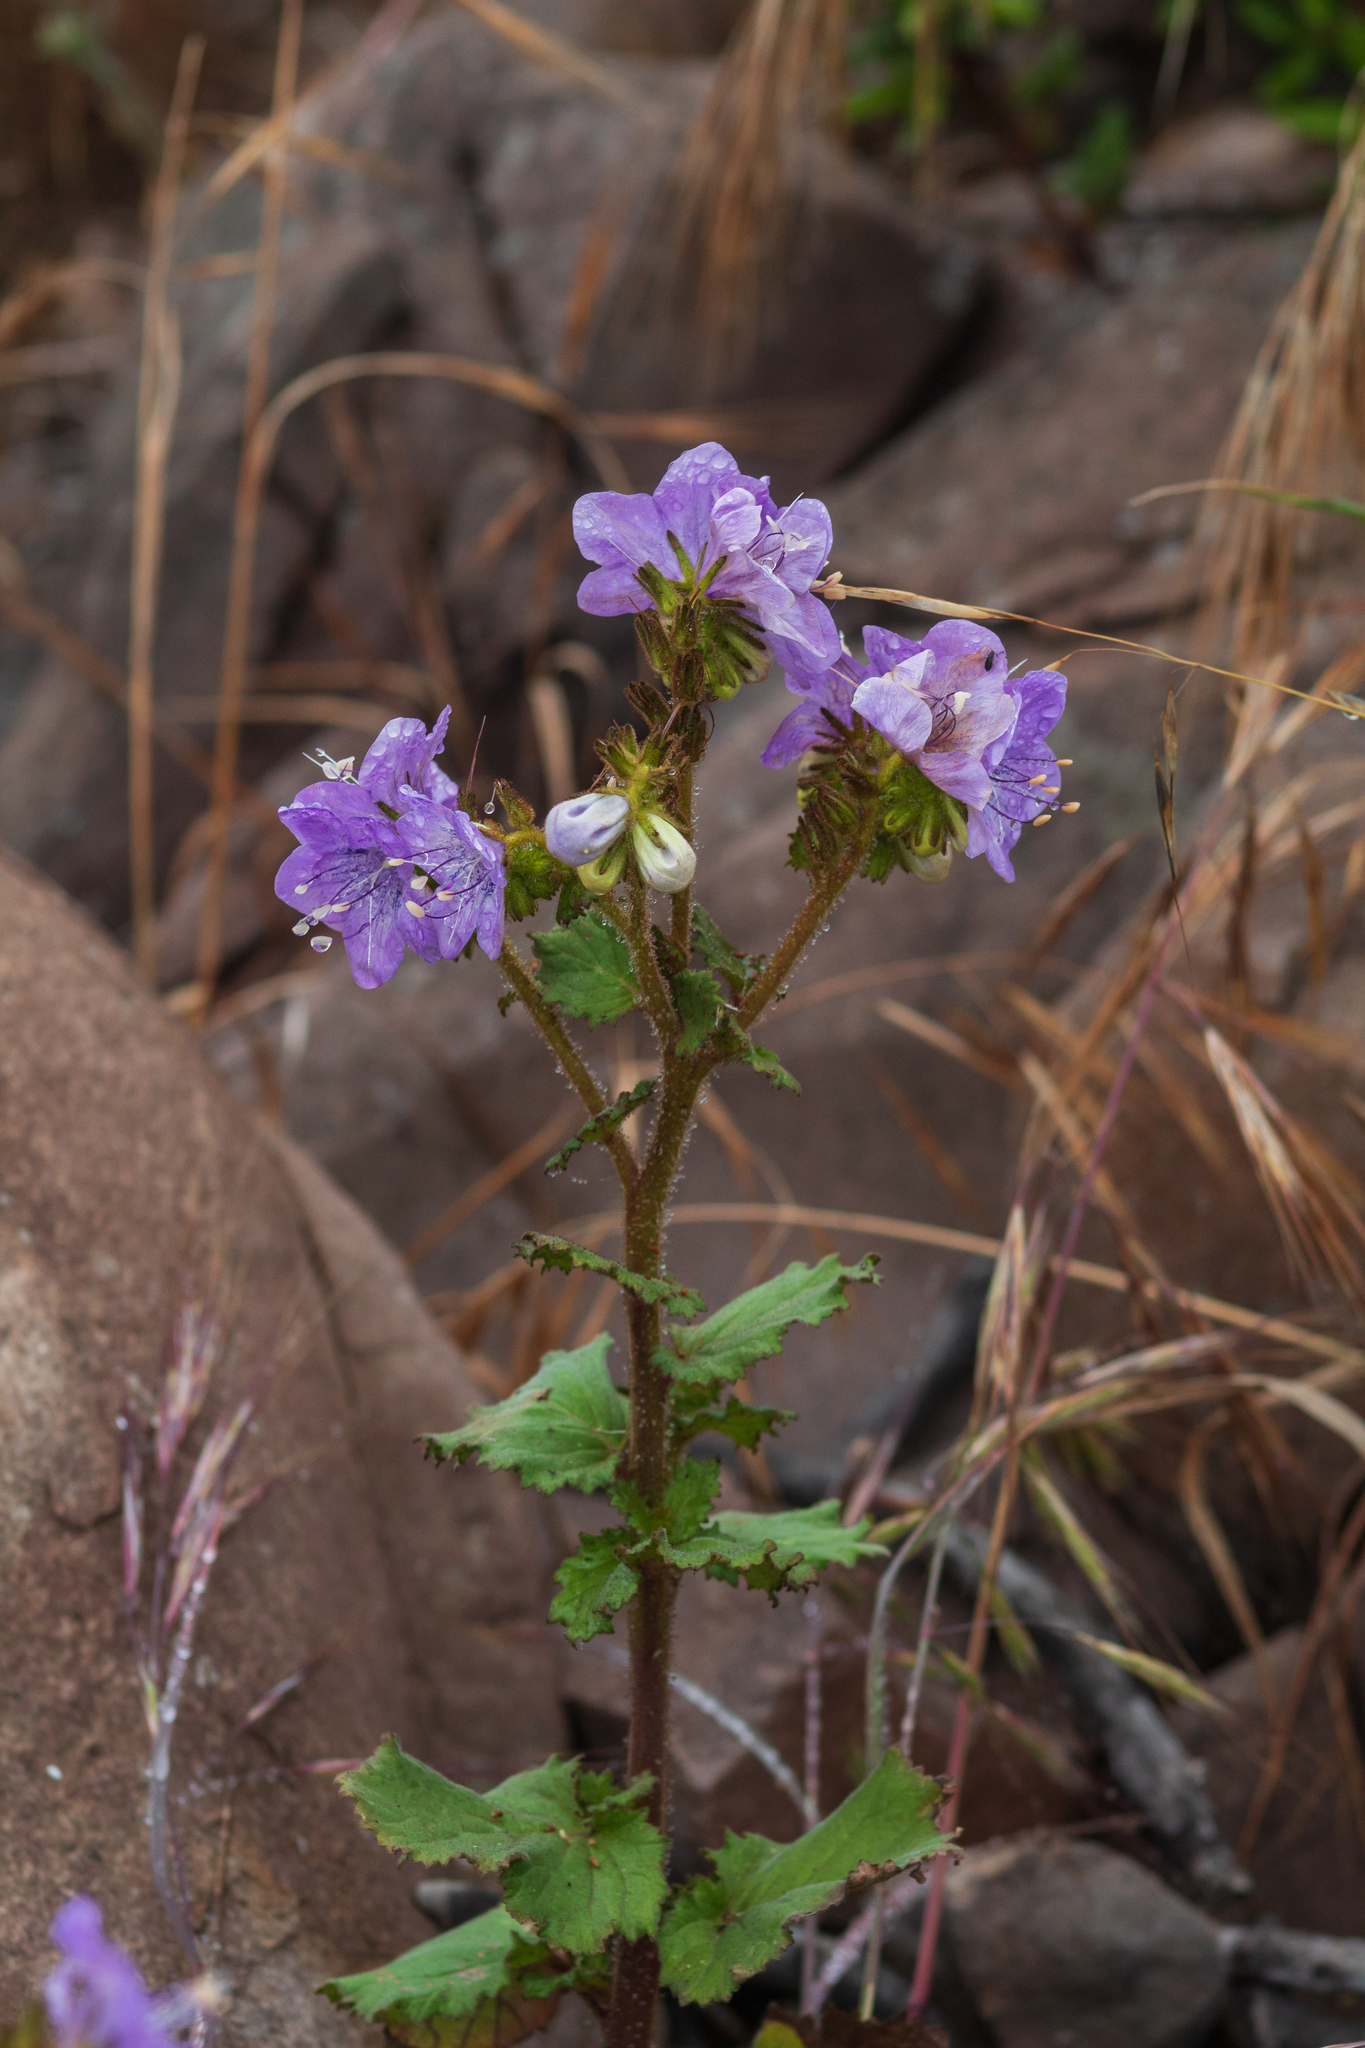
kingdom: Plantae
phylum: Tracheophyta
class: Magnoliopsida
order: Boraginales
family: Hydrophyllaceae
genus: Phacelia
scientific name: Phacelia grandiflora
